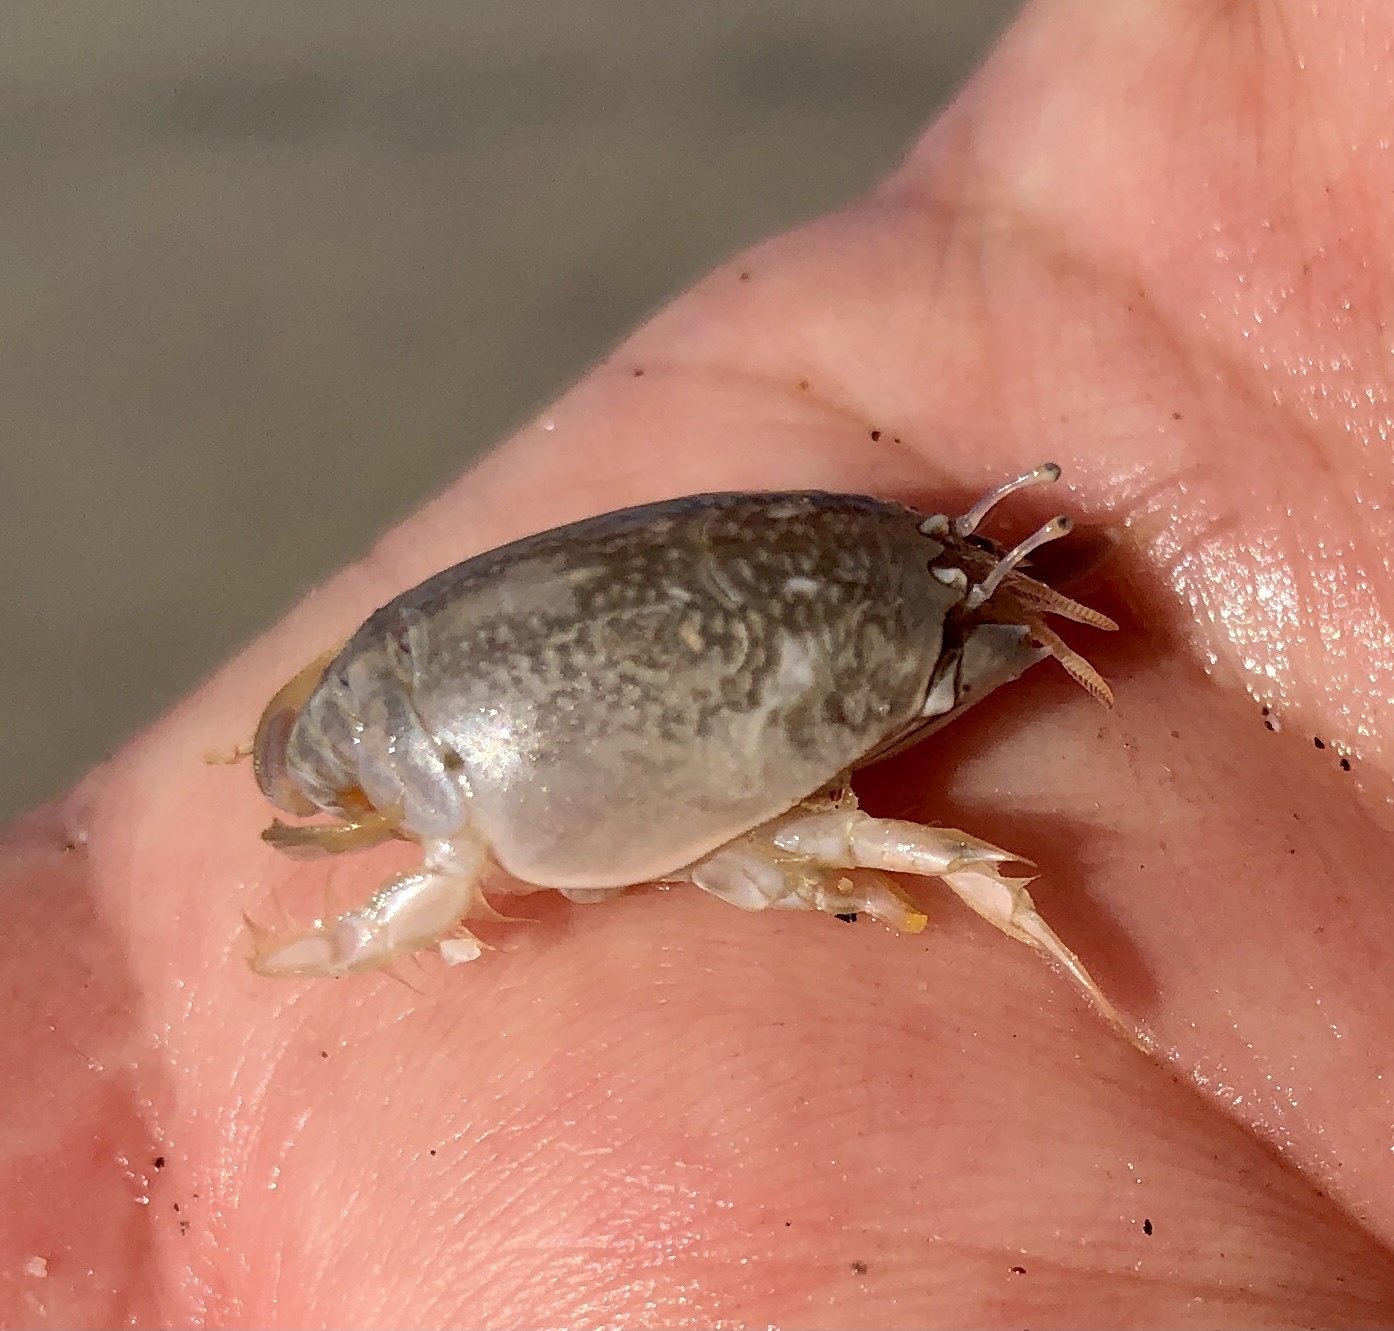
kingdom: Animalia
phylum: Arthropoda
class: Malacostraca
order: Decapoda
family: Hippidae
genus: Emerita
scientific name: Emerita analoga
